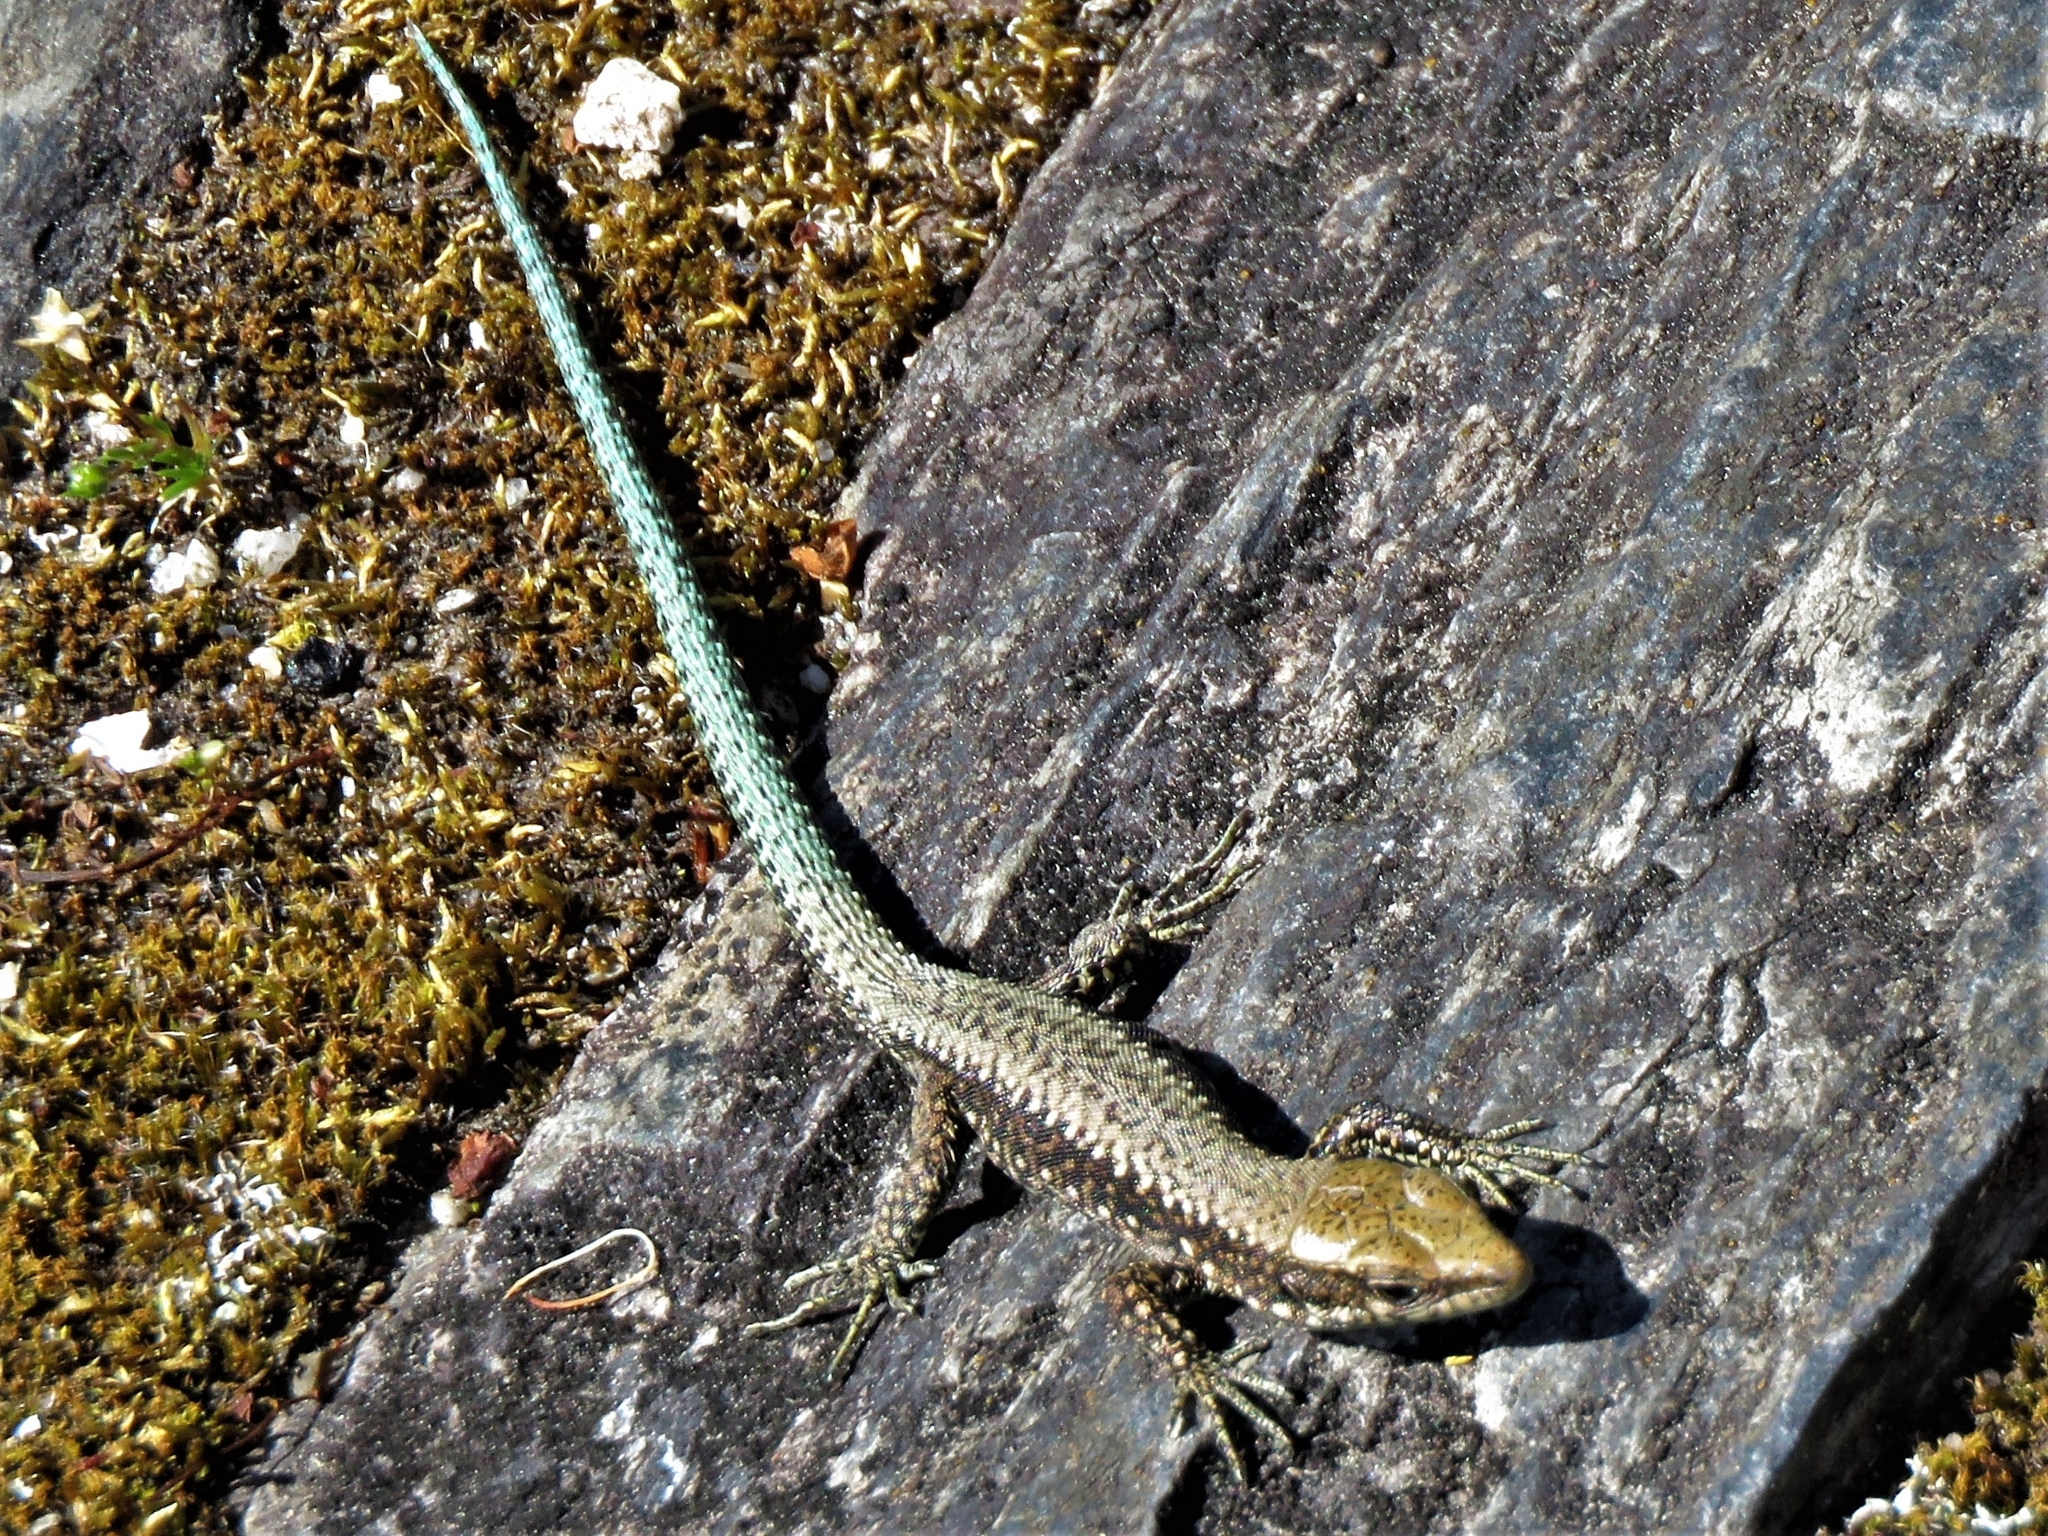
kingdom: Animalia
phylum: Chordata
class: Squamata
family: Lacertidae
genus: Iberolacerta
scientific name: Iberolacerta monticola
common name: Iberian mountain lizard
